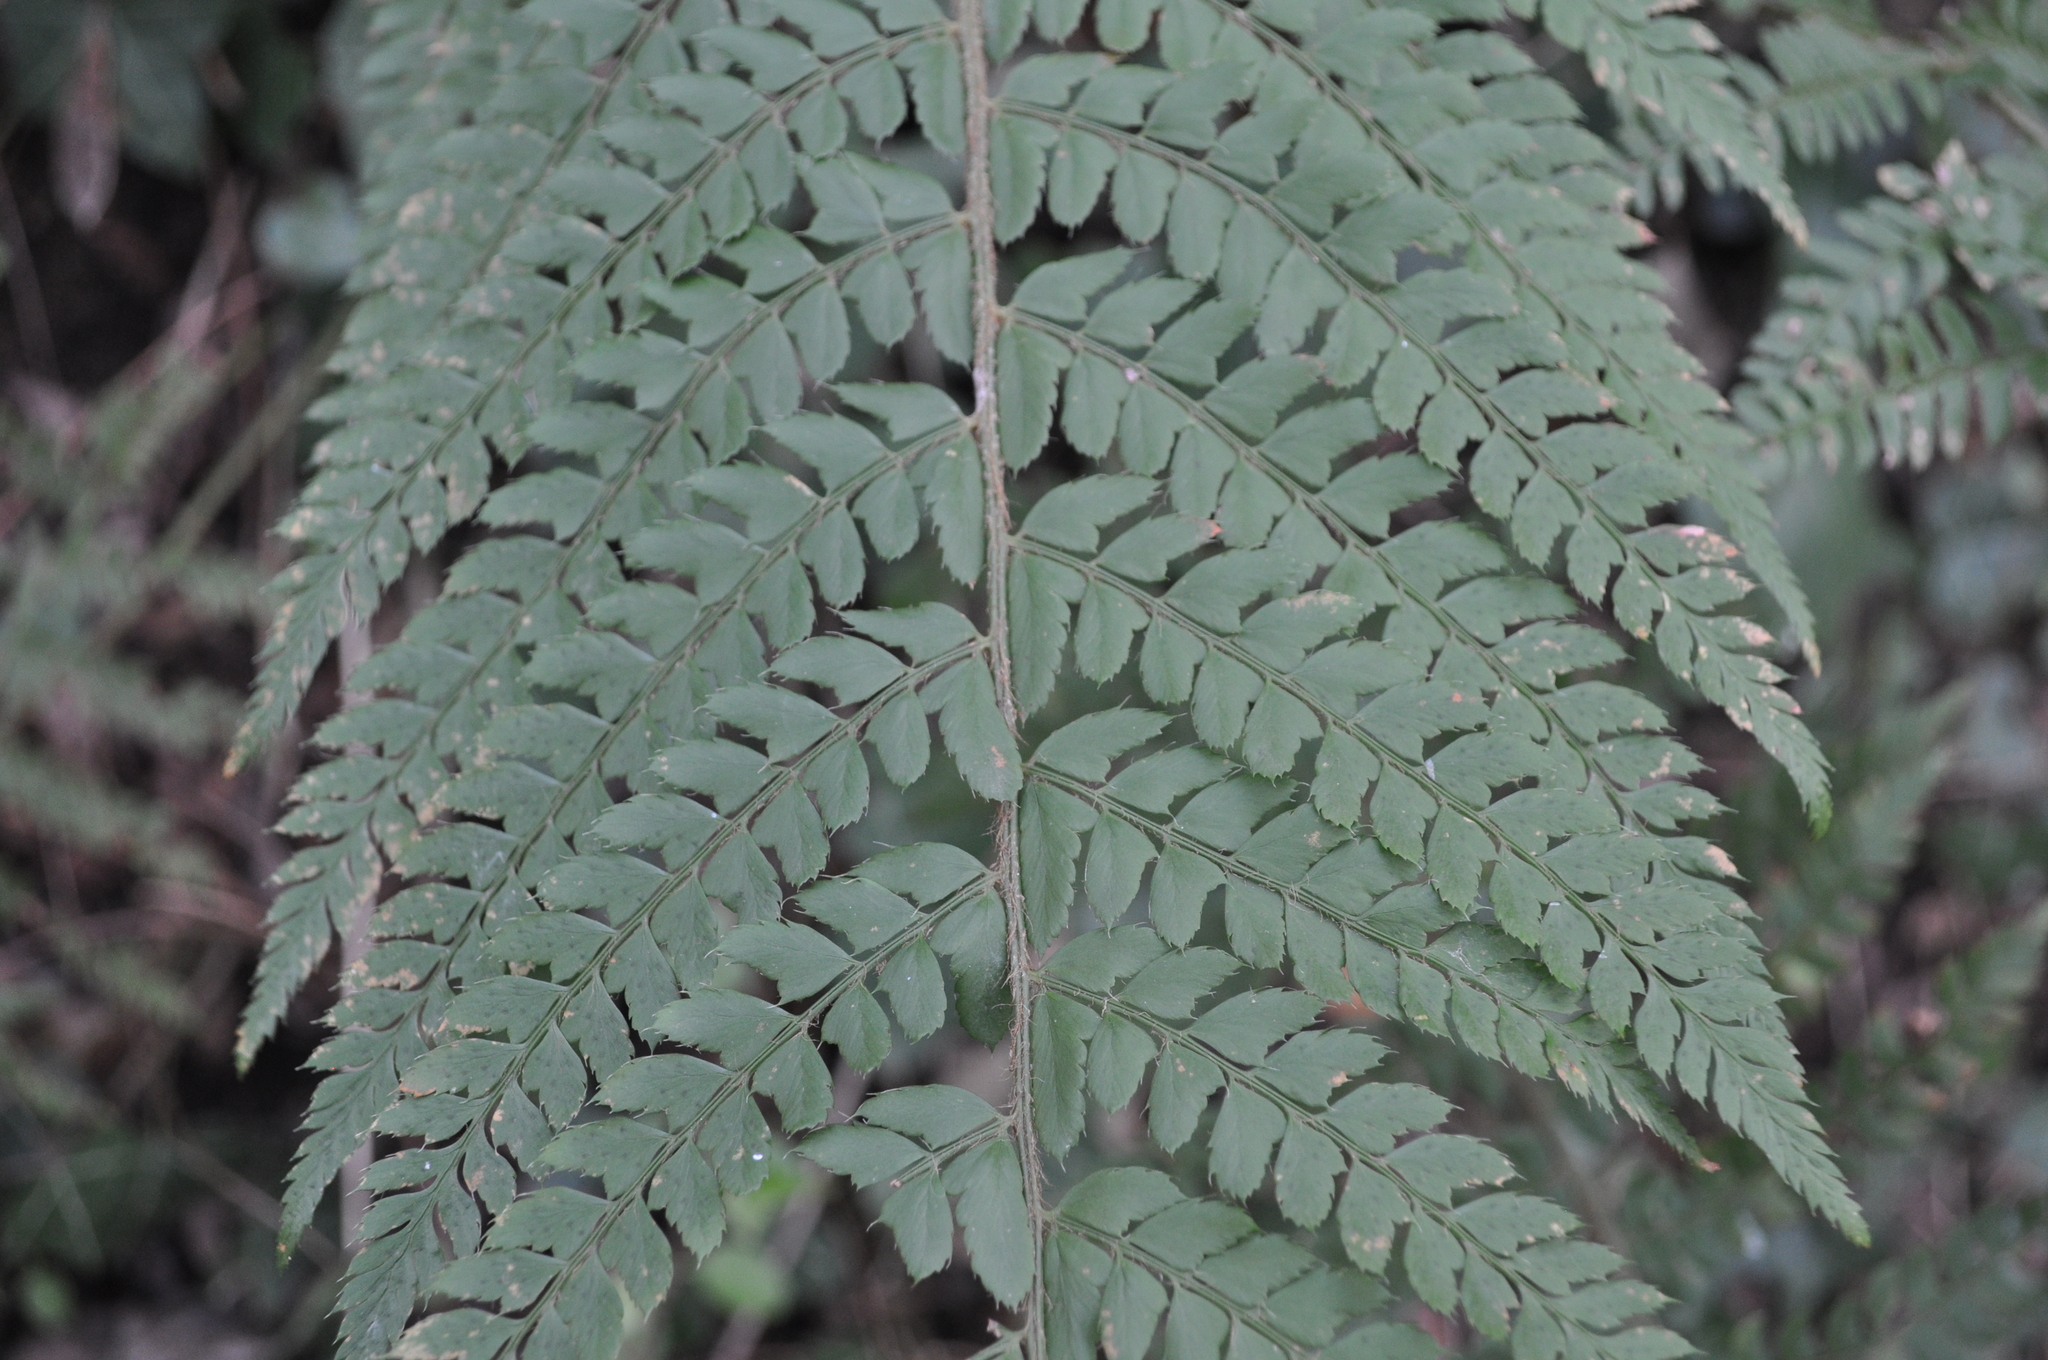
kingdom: Plantae
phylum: Tracheophyta
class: Polypodiopsida
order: Polypodiales
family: Dryopteridaceae
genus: Polystichum
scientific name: Polystichum setiferum
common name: Soft shield-fern
